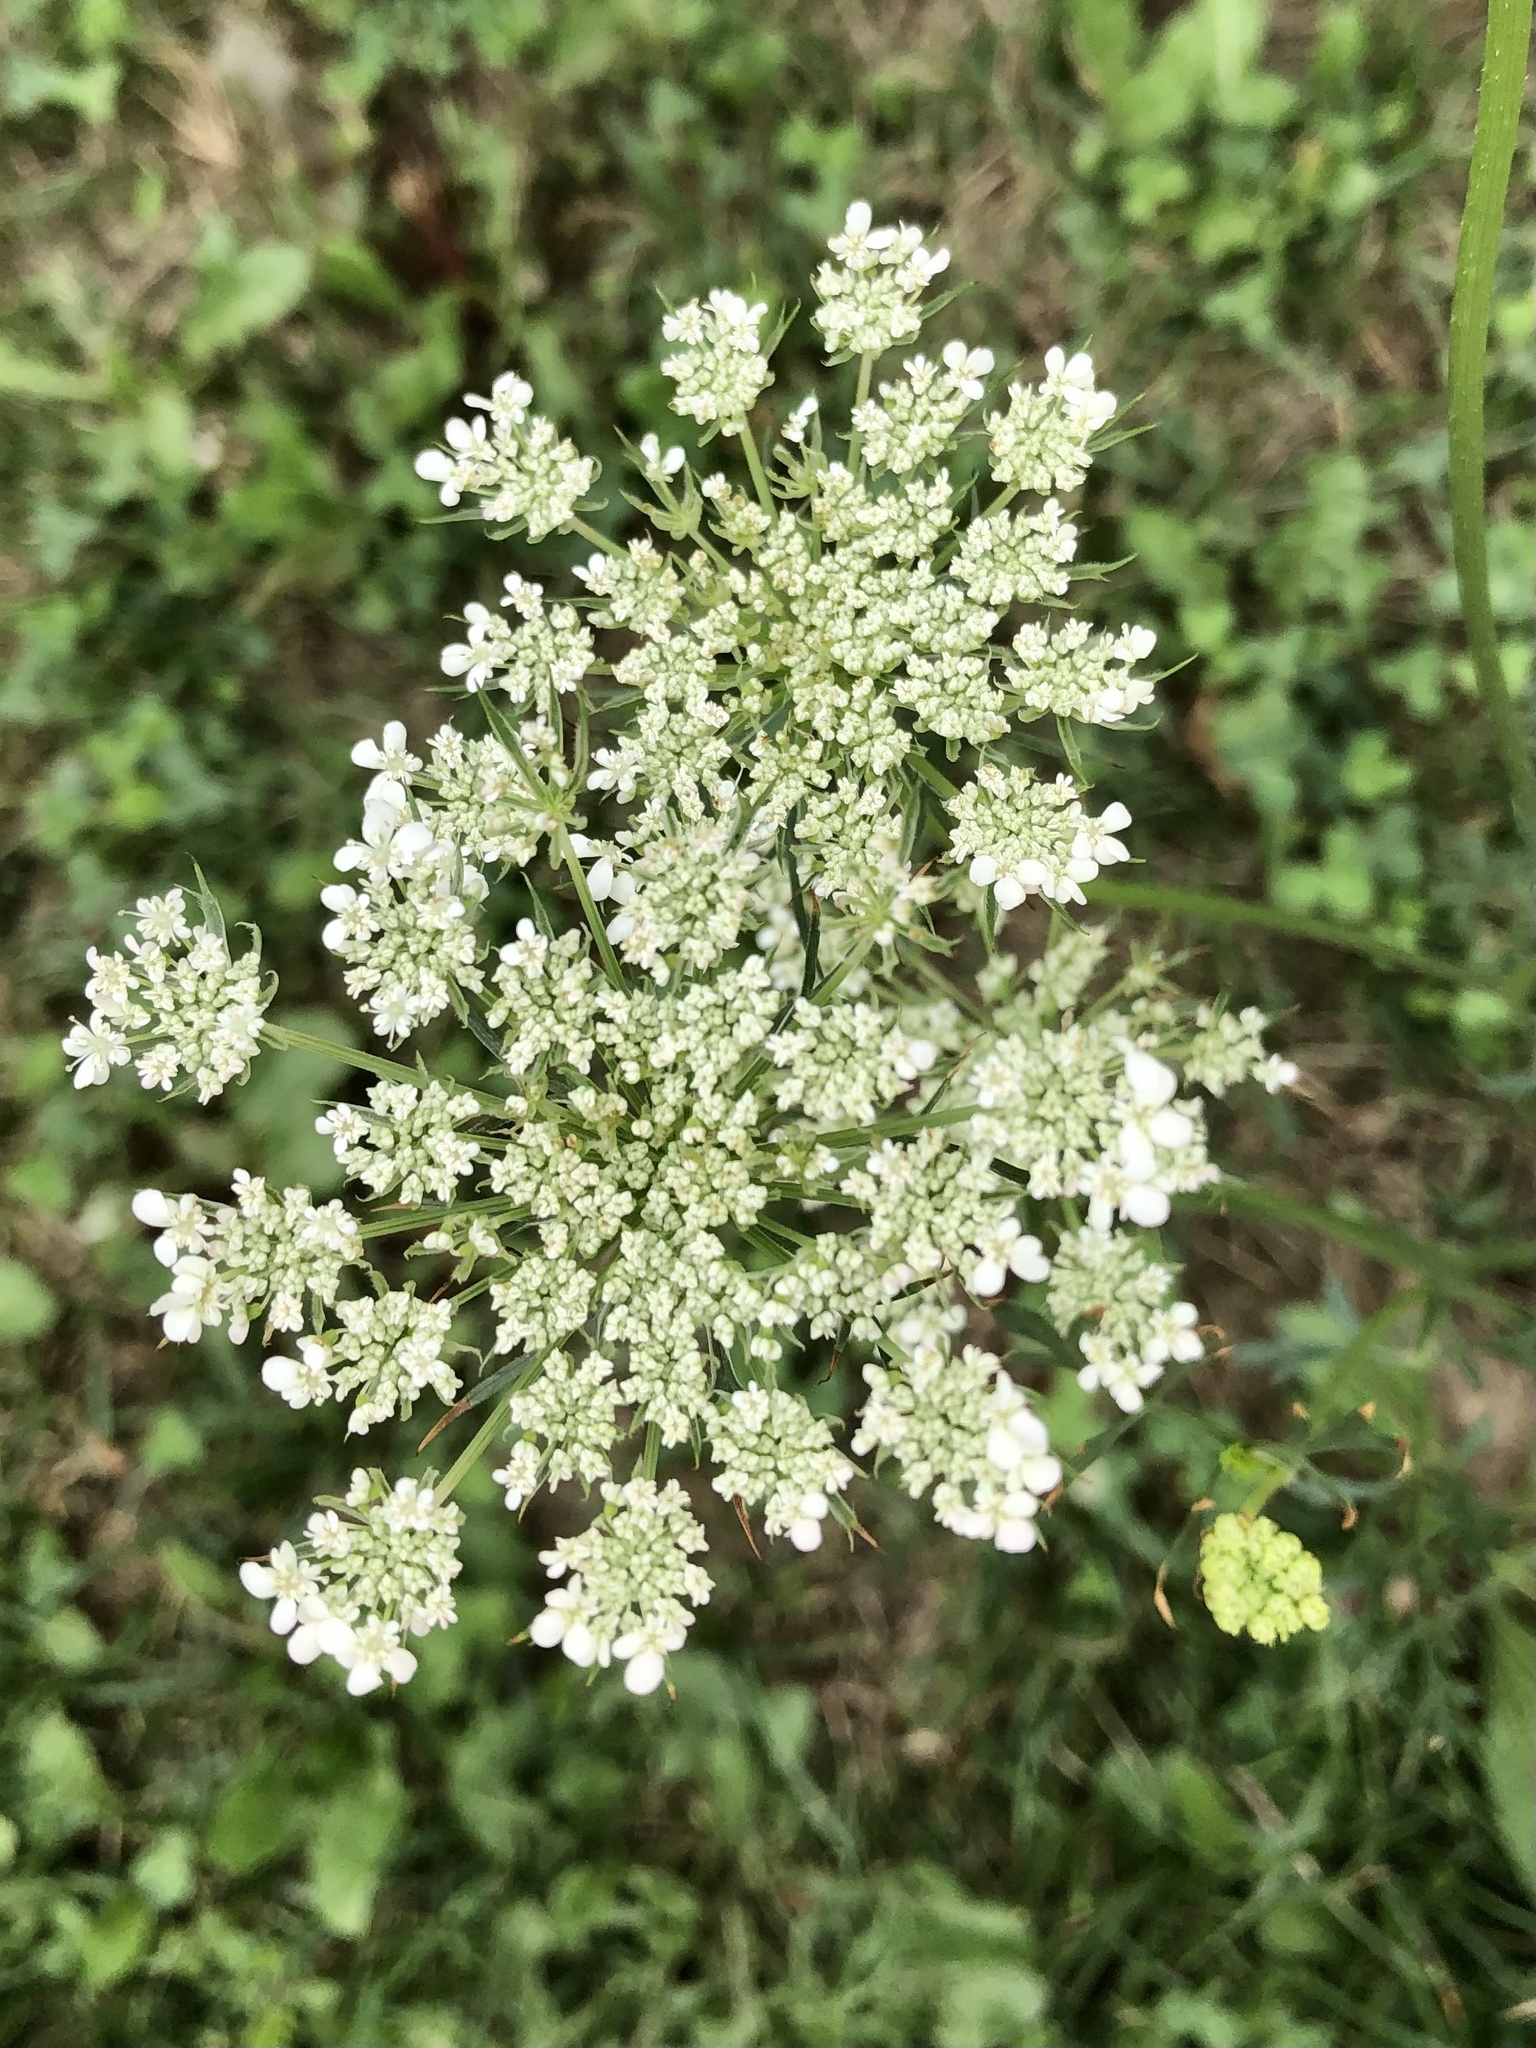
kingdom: Plantae
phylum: Tracheophyta
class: Magnoliopsida
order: Apiales
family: Apiaceae
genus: Daucus
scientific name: Daucus carota
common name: Wild carrot
